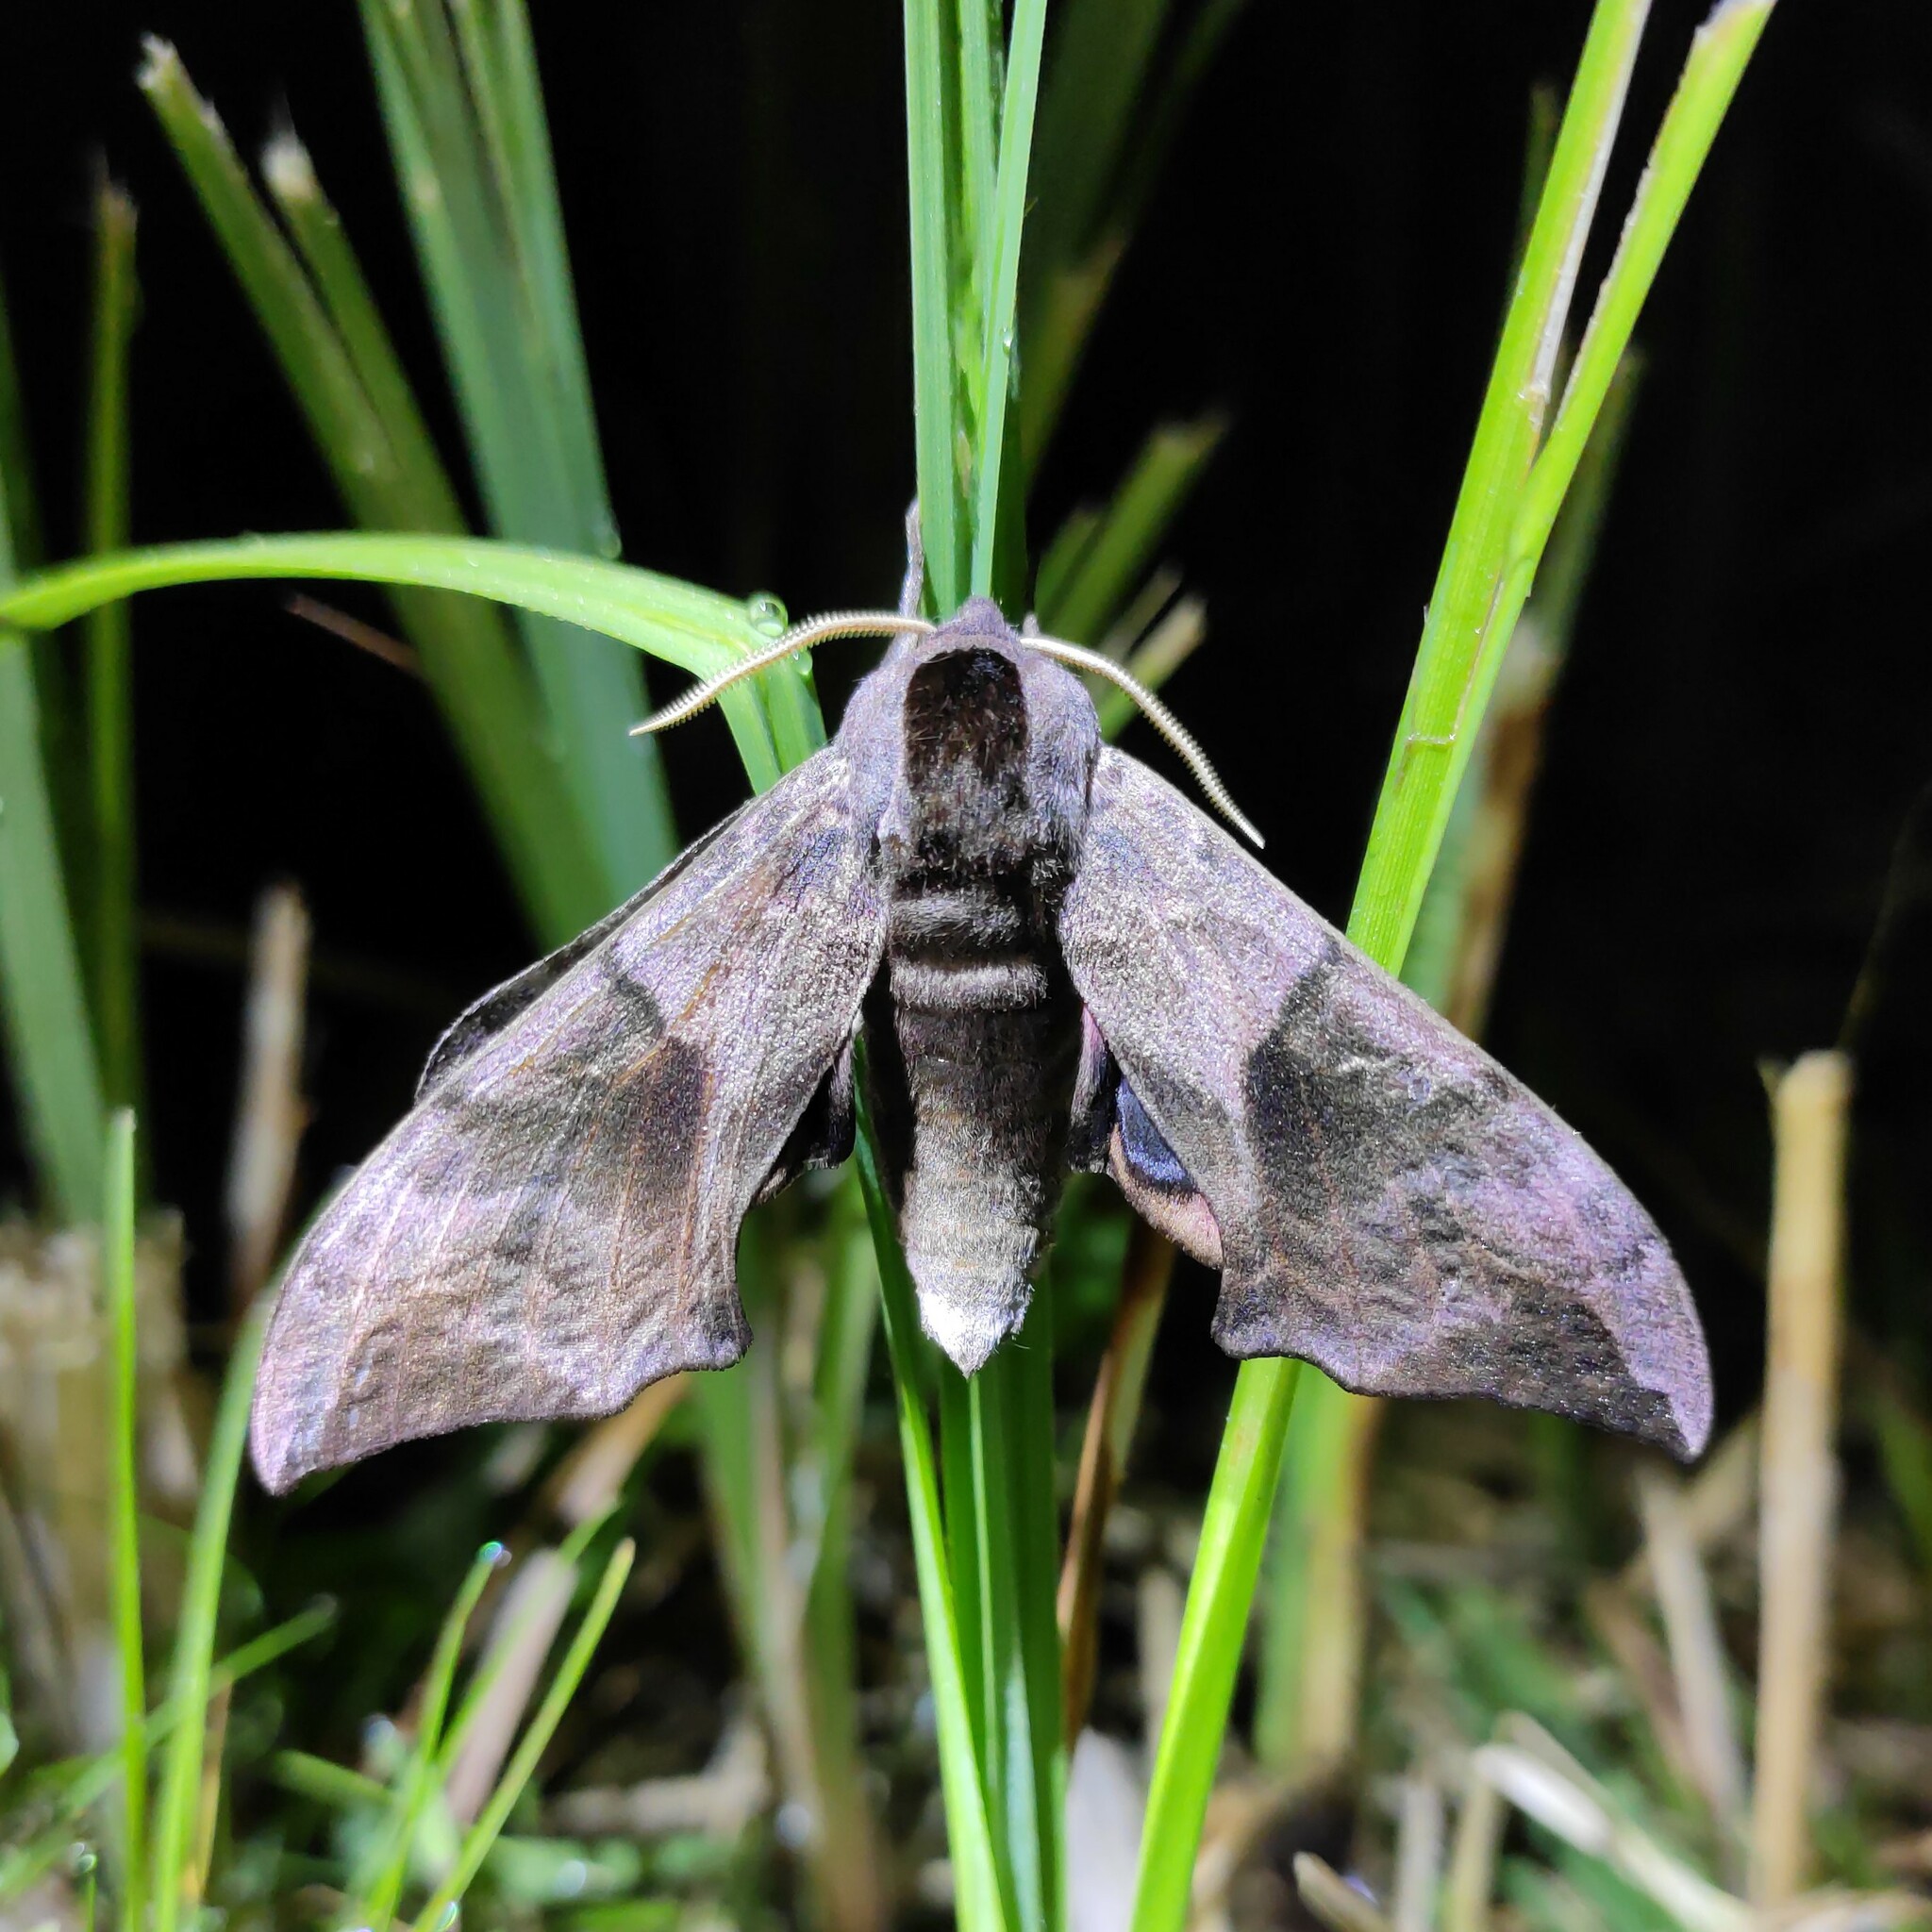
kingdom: Animalia
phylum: Arthropoda
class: Insecta
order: Lepidoptera
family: Sphingidae
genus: Smerinthus
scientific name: Smerinthus ocellata
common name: Eyed hawk-moth
